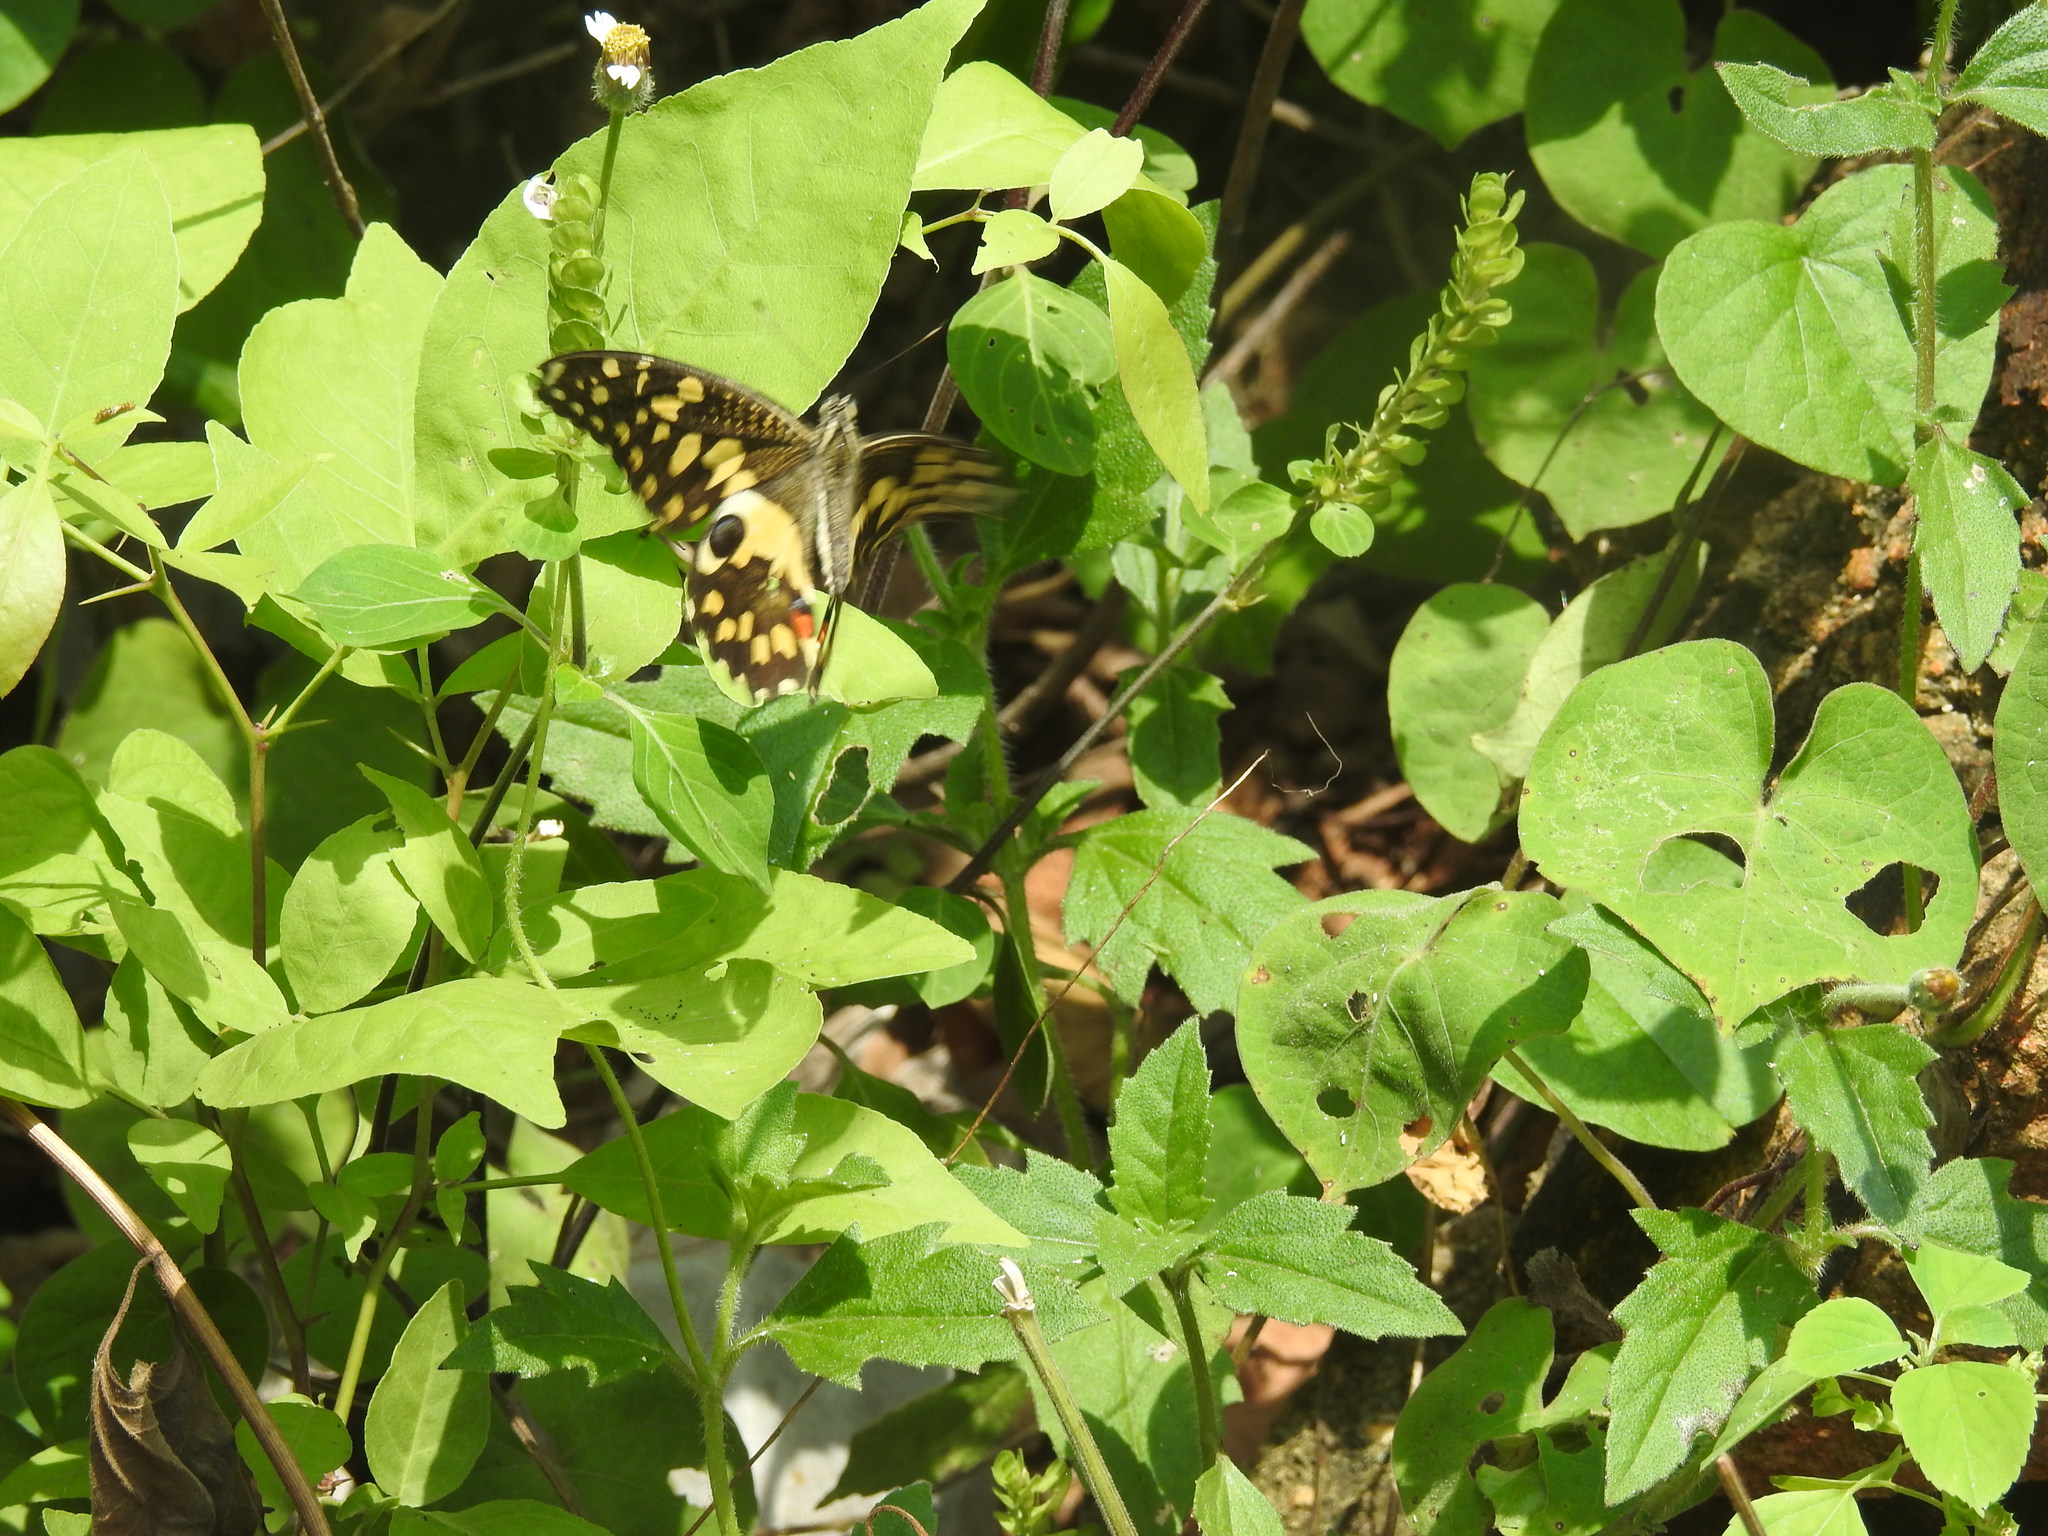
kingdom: Animalia
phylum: Arthropoda
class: Insecta
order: Lepidoptera
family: Papilionidae
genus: Papilio
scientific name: Papilio demoleus
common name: Lime butterfly
